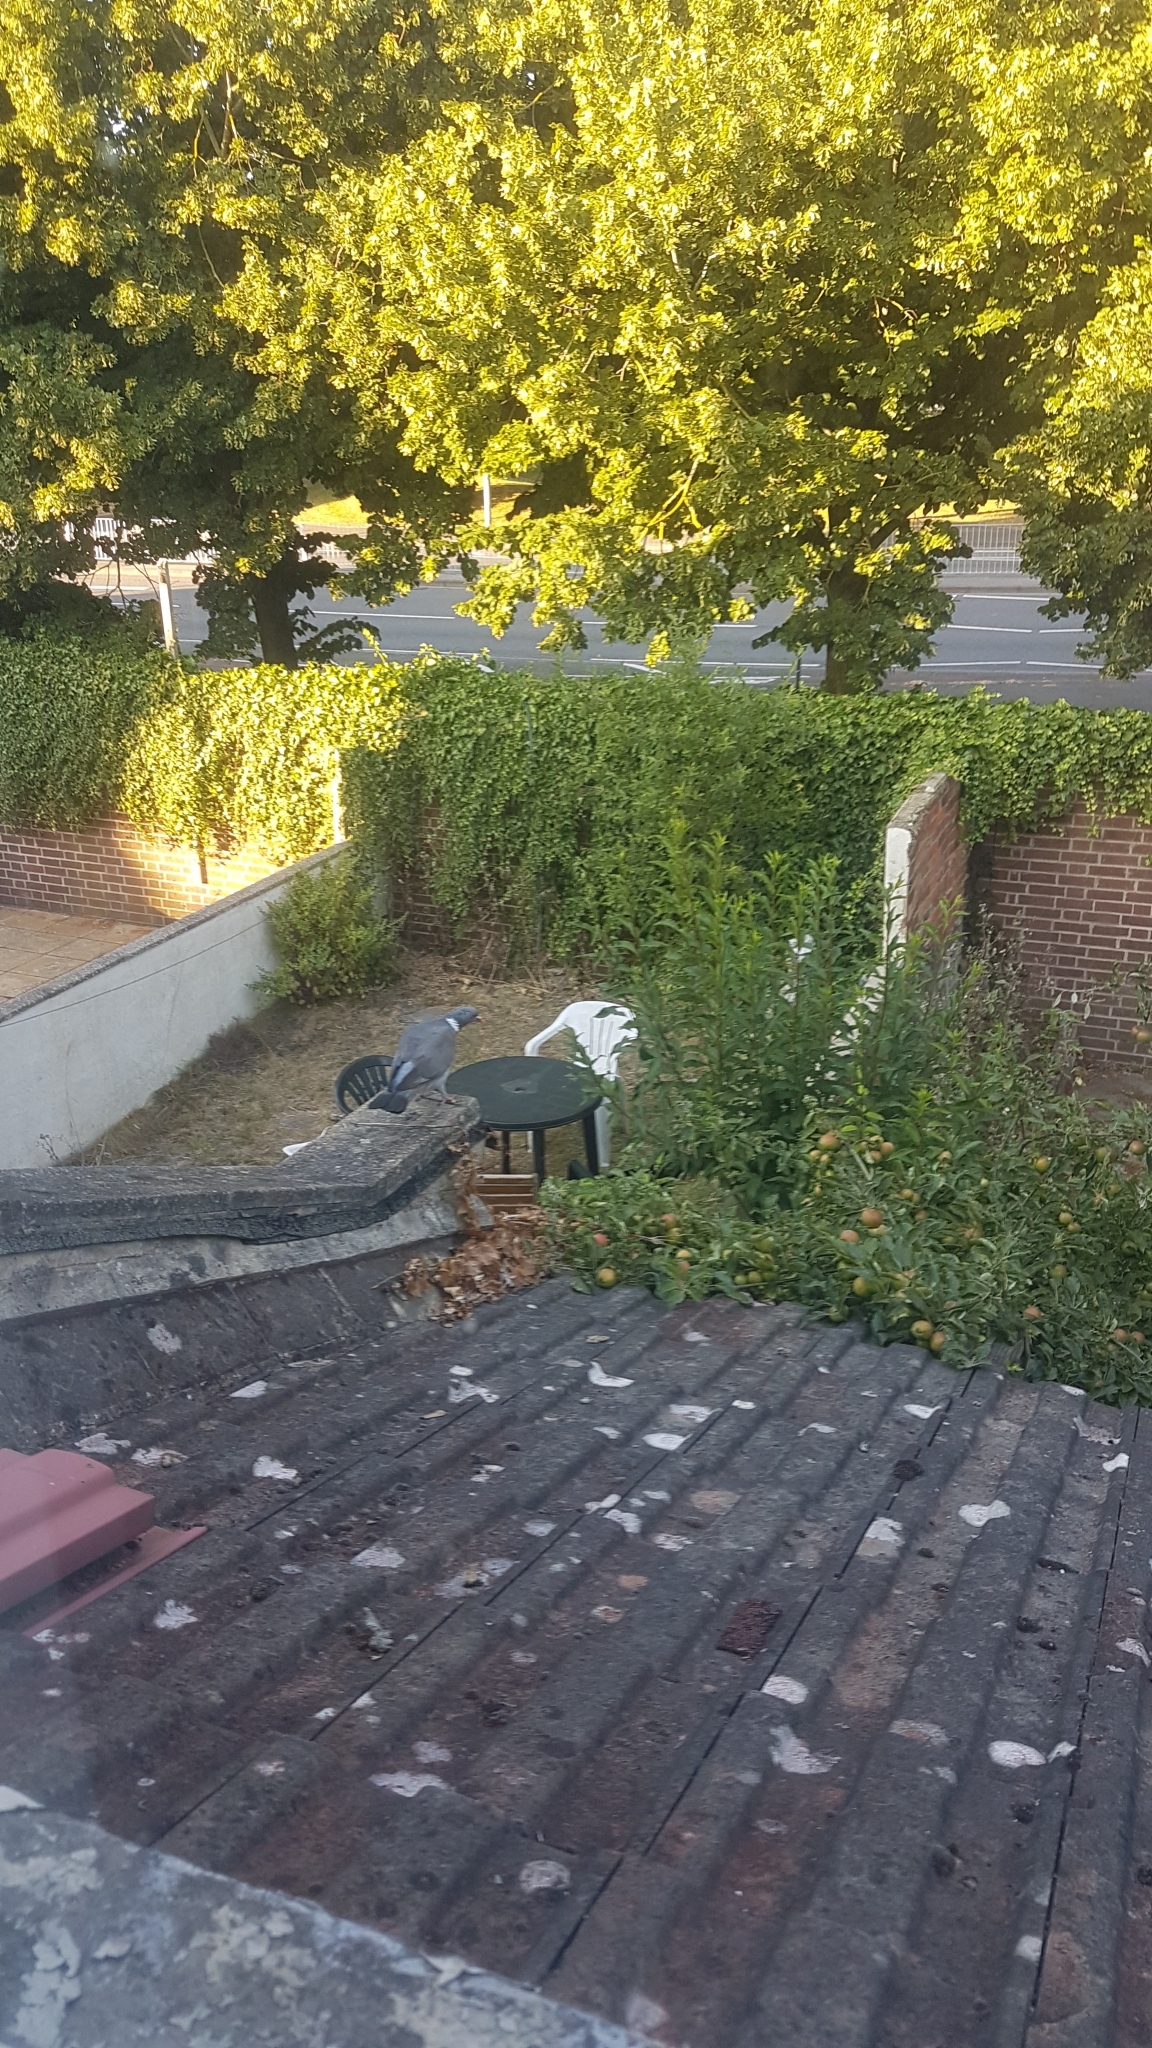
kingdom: Animalia
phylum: Chordata
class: Aves
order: Columbiformes
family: Columbidae
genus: Columba
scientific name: Columba palumbus
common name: Common wood pigeon
